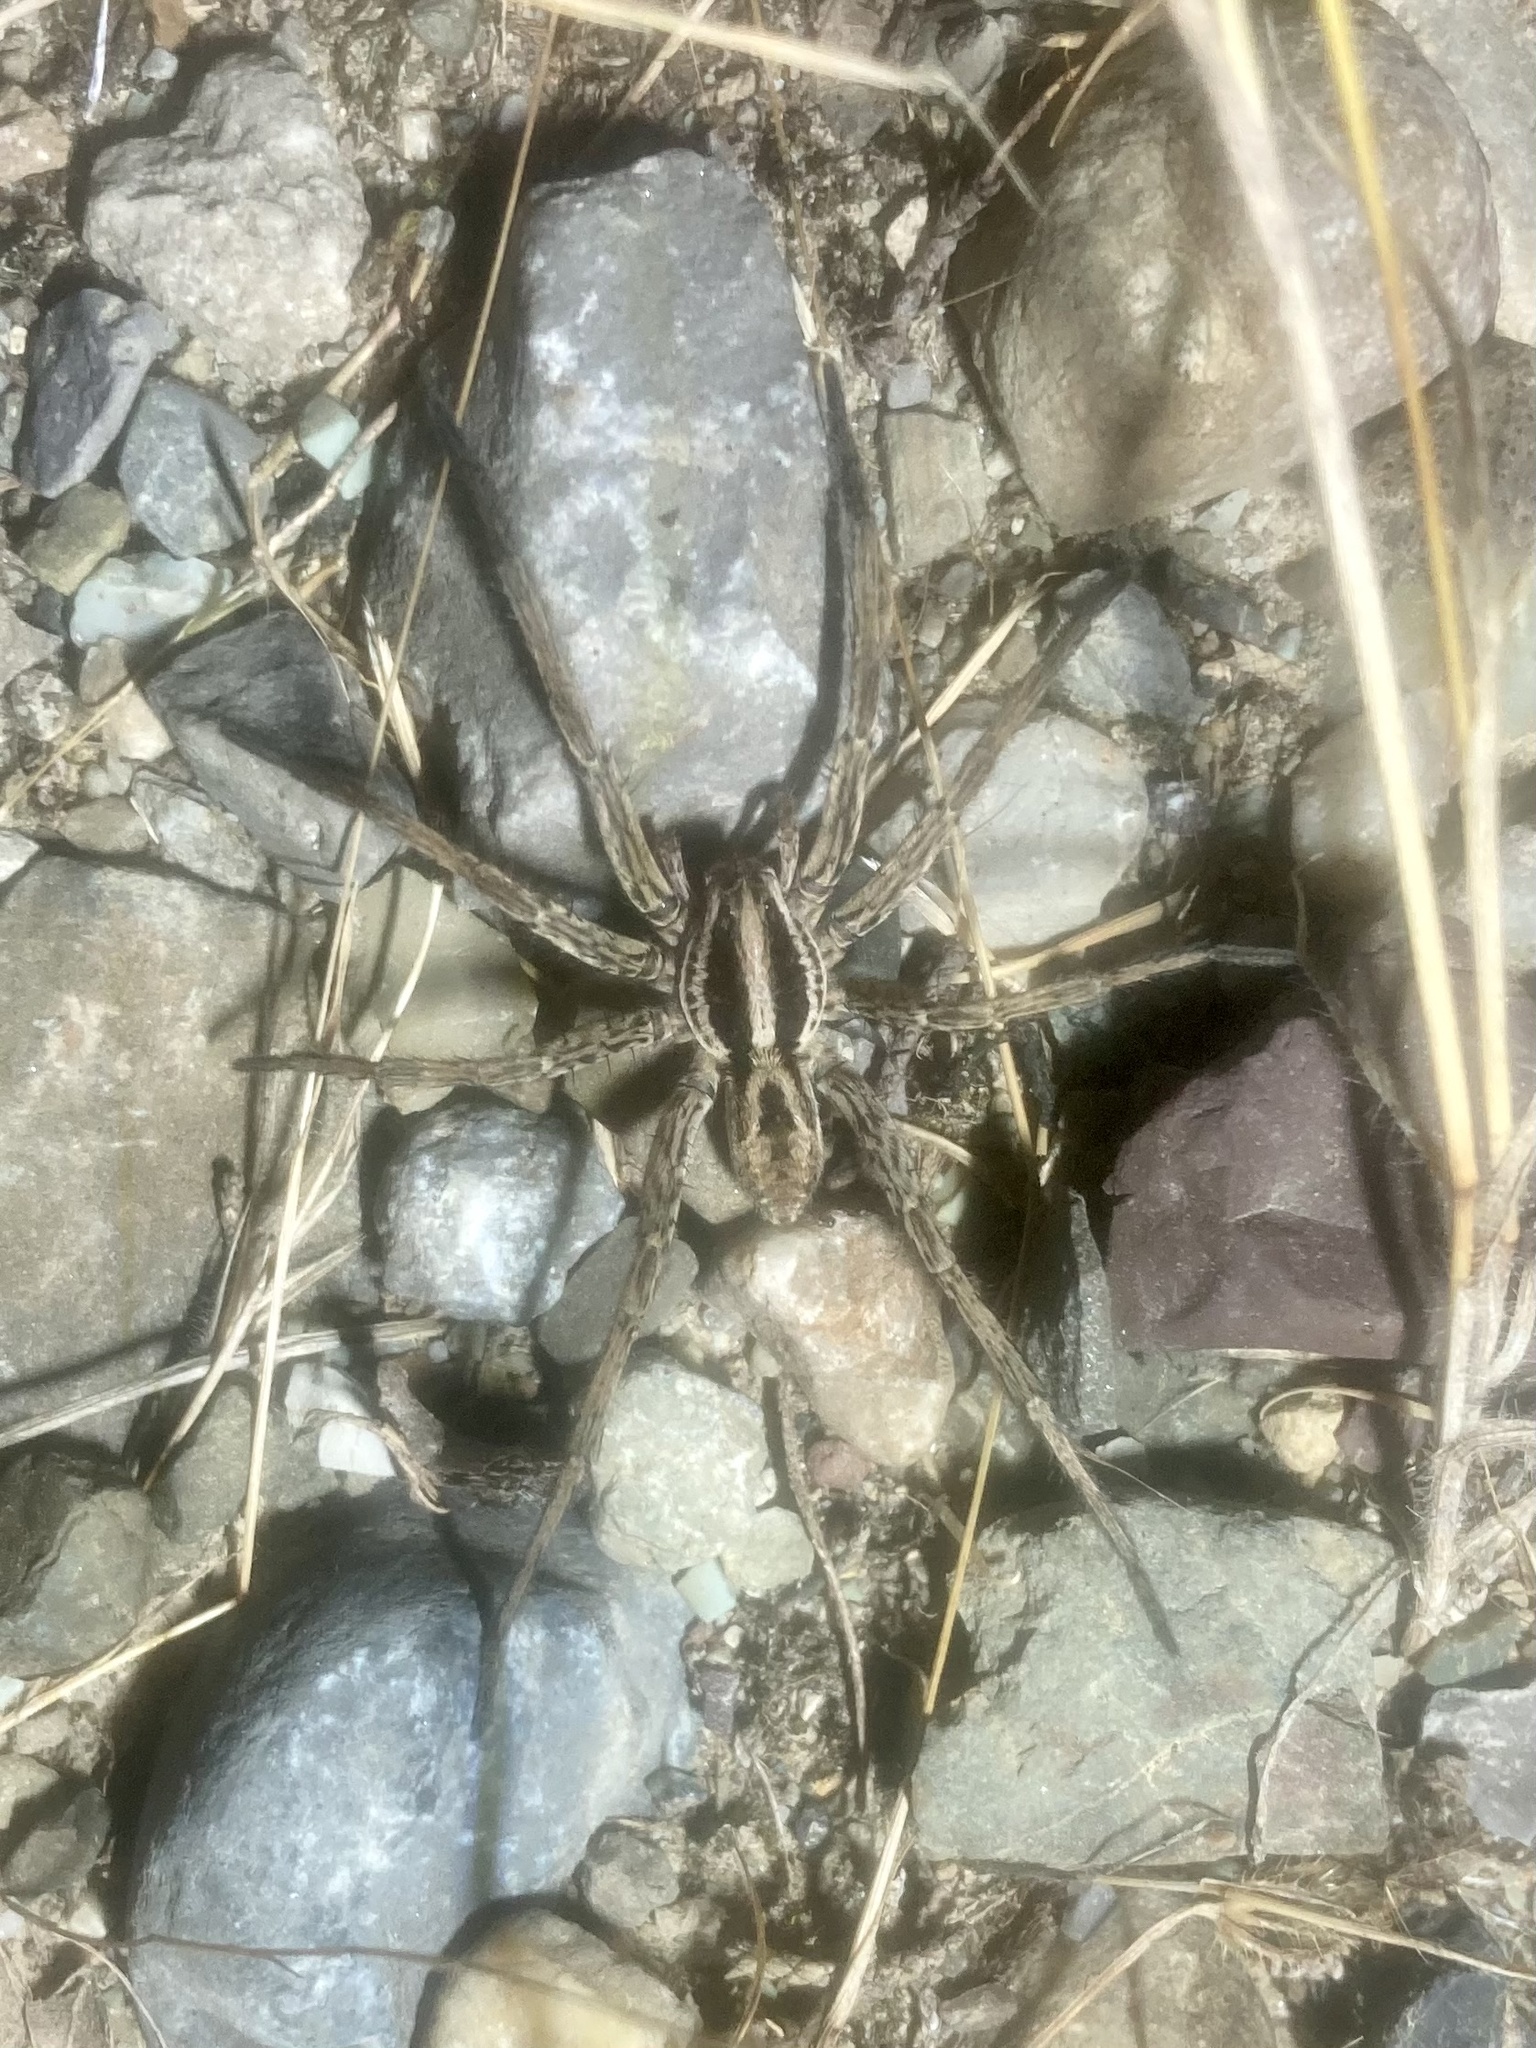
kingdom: Animalia
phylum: Arthropoda
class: Arachnida
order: Araneae
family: Lycosidae
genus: Hogna
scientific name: Hogna radiata
